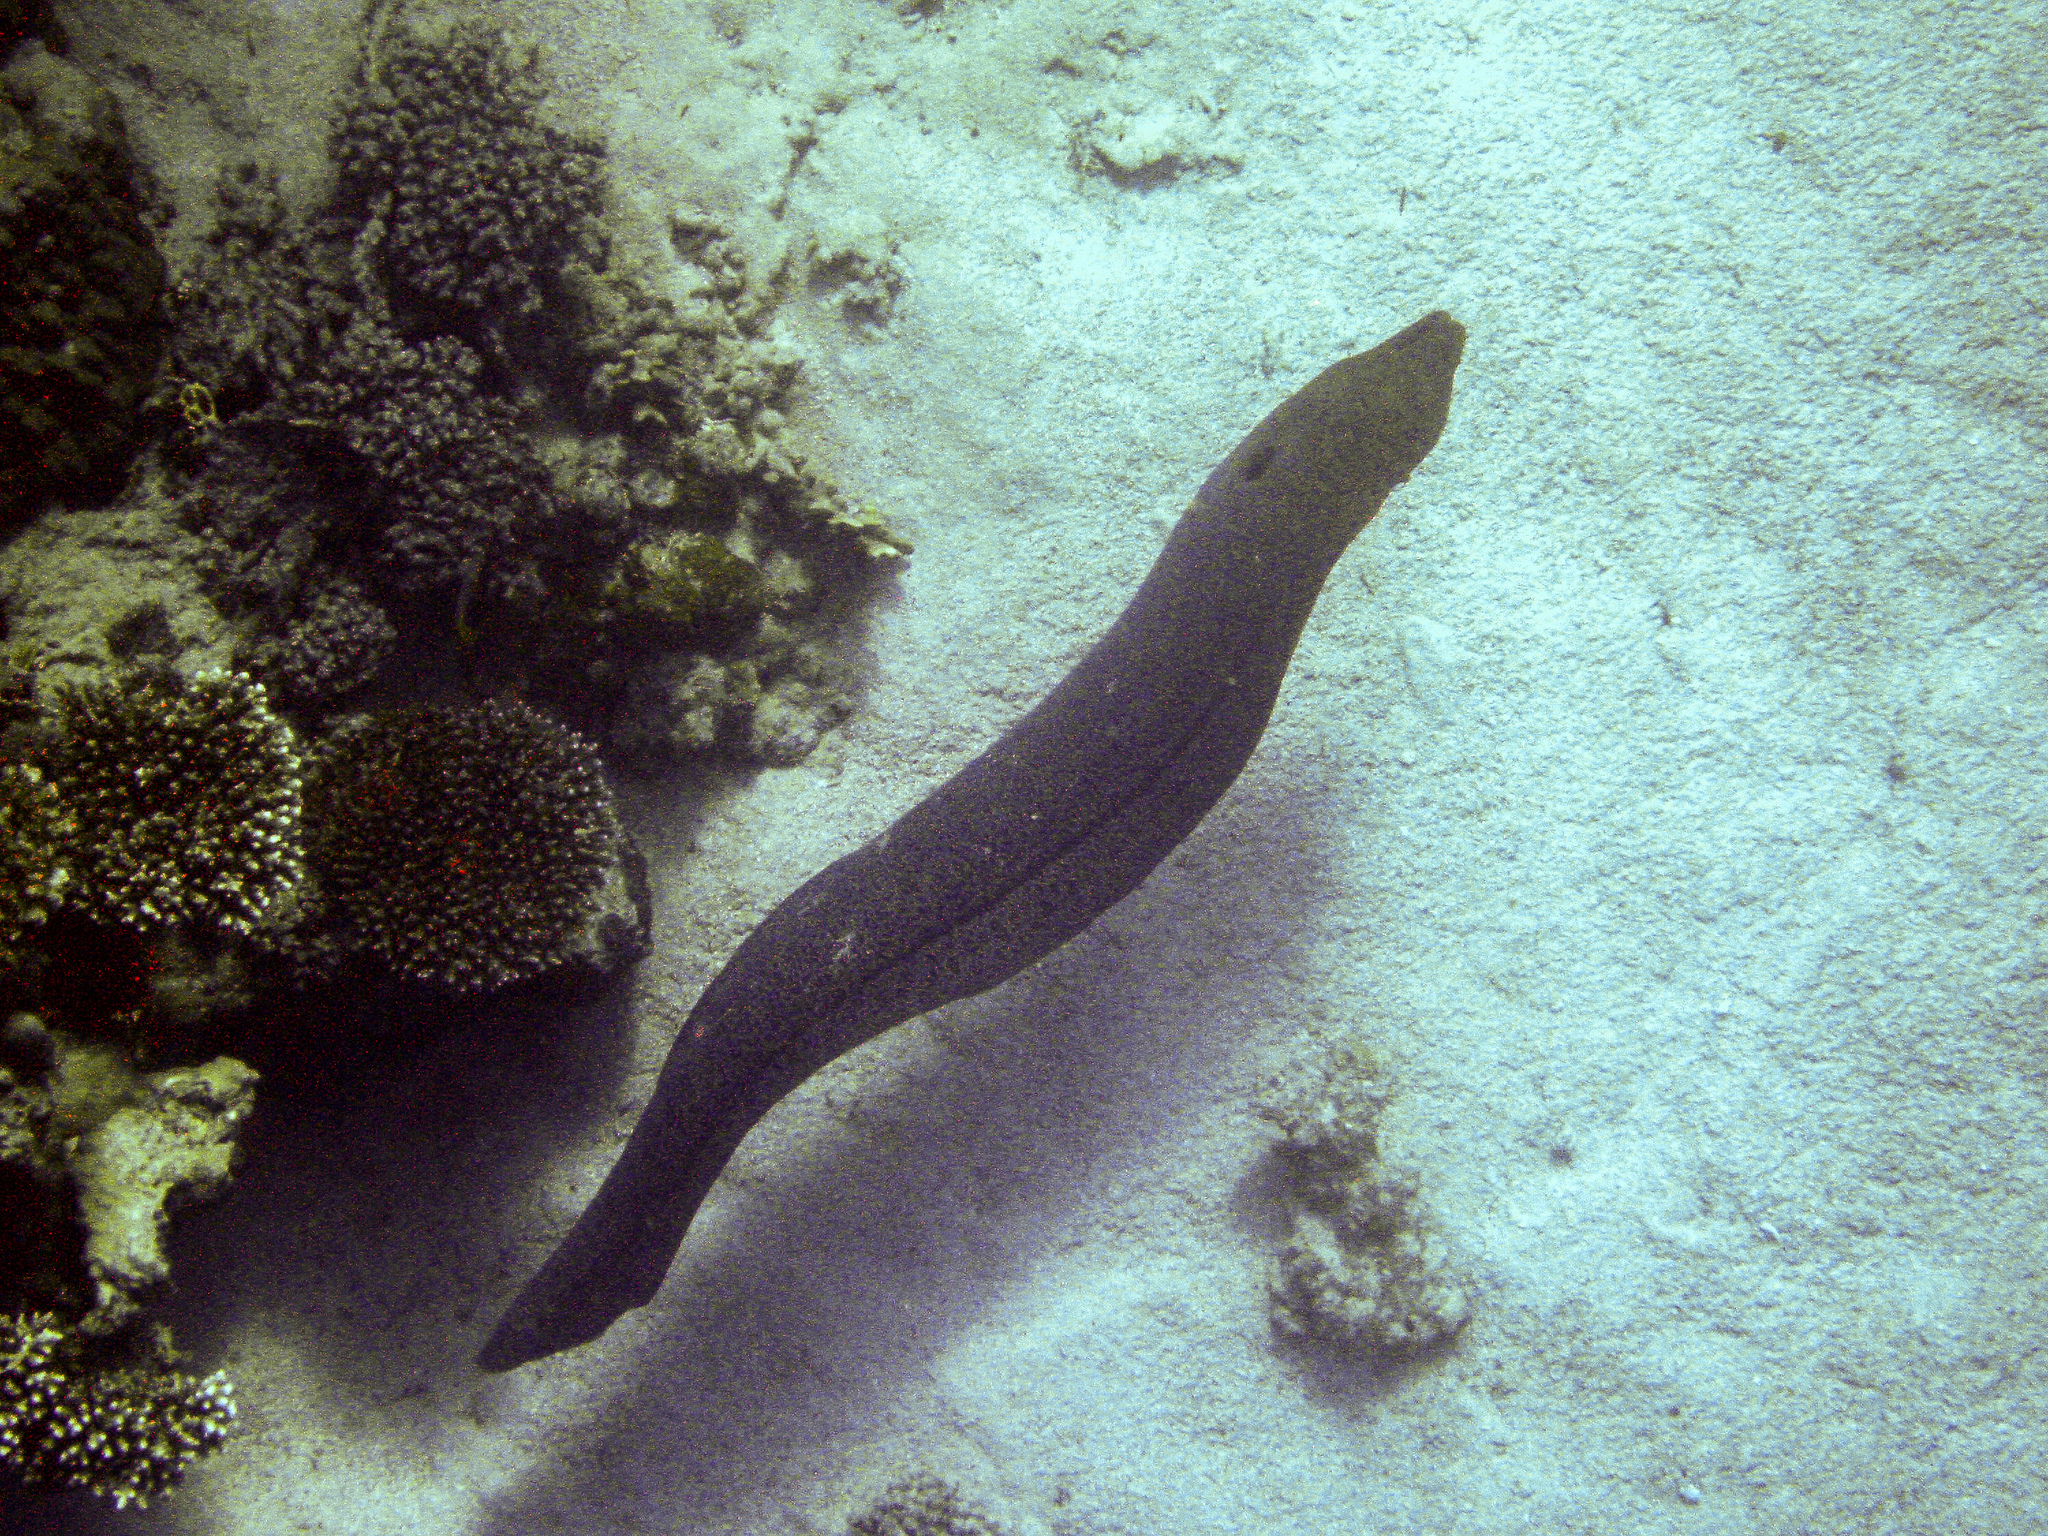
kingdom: Animalia
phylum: Chordata
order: Anguilliformes
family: Muraenidae
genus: Gymnothorax
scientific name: Gymnothorax javanicus
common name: Giant moray
